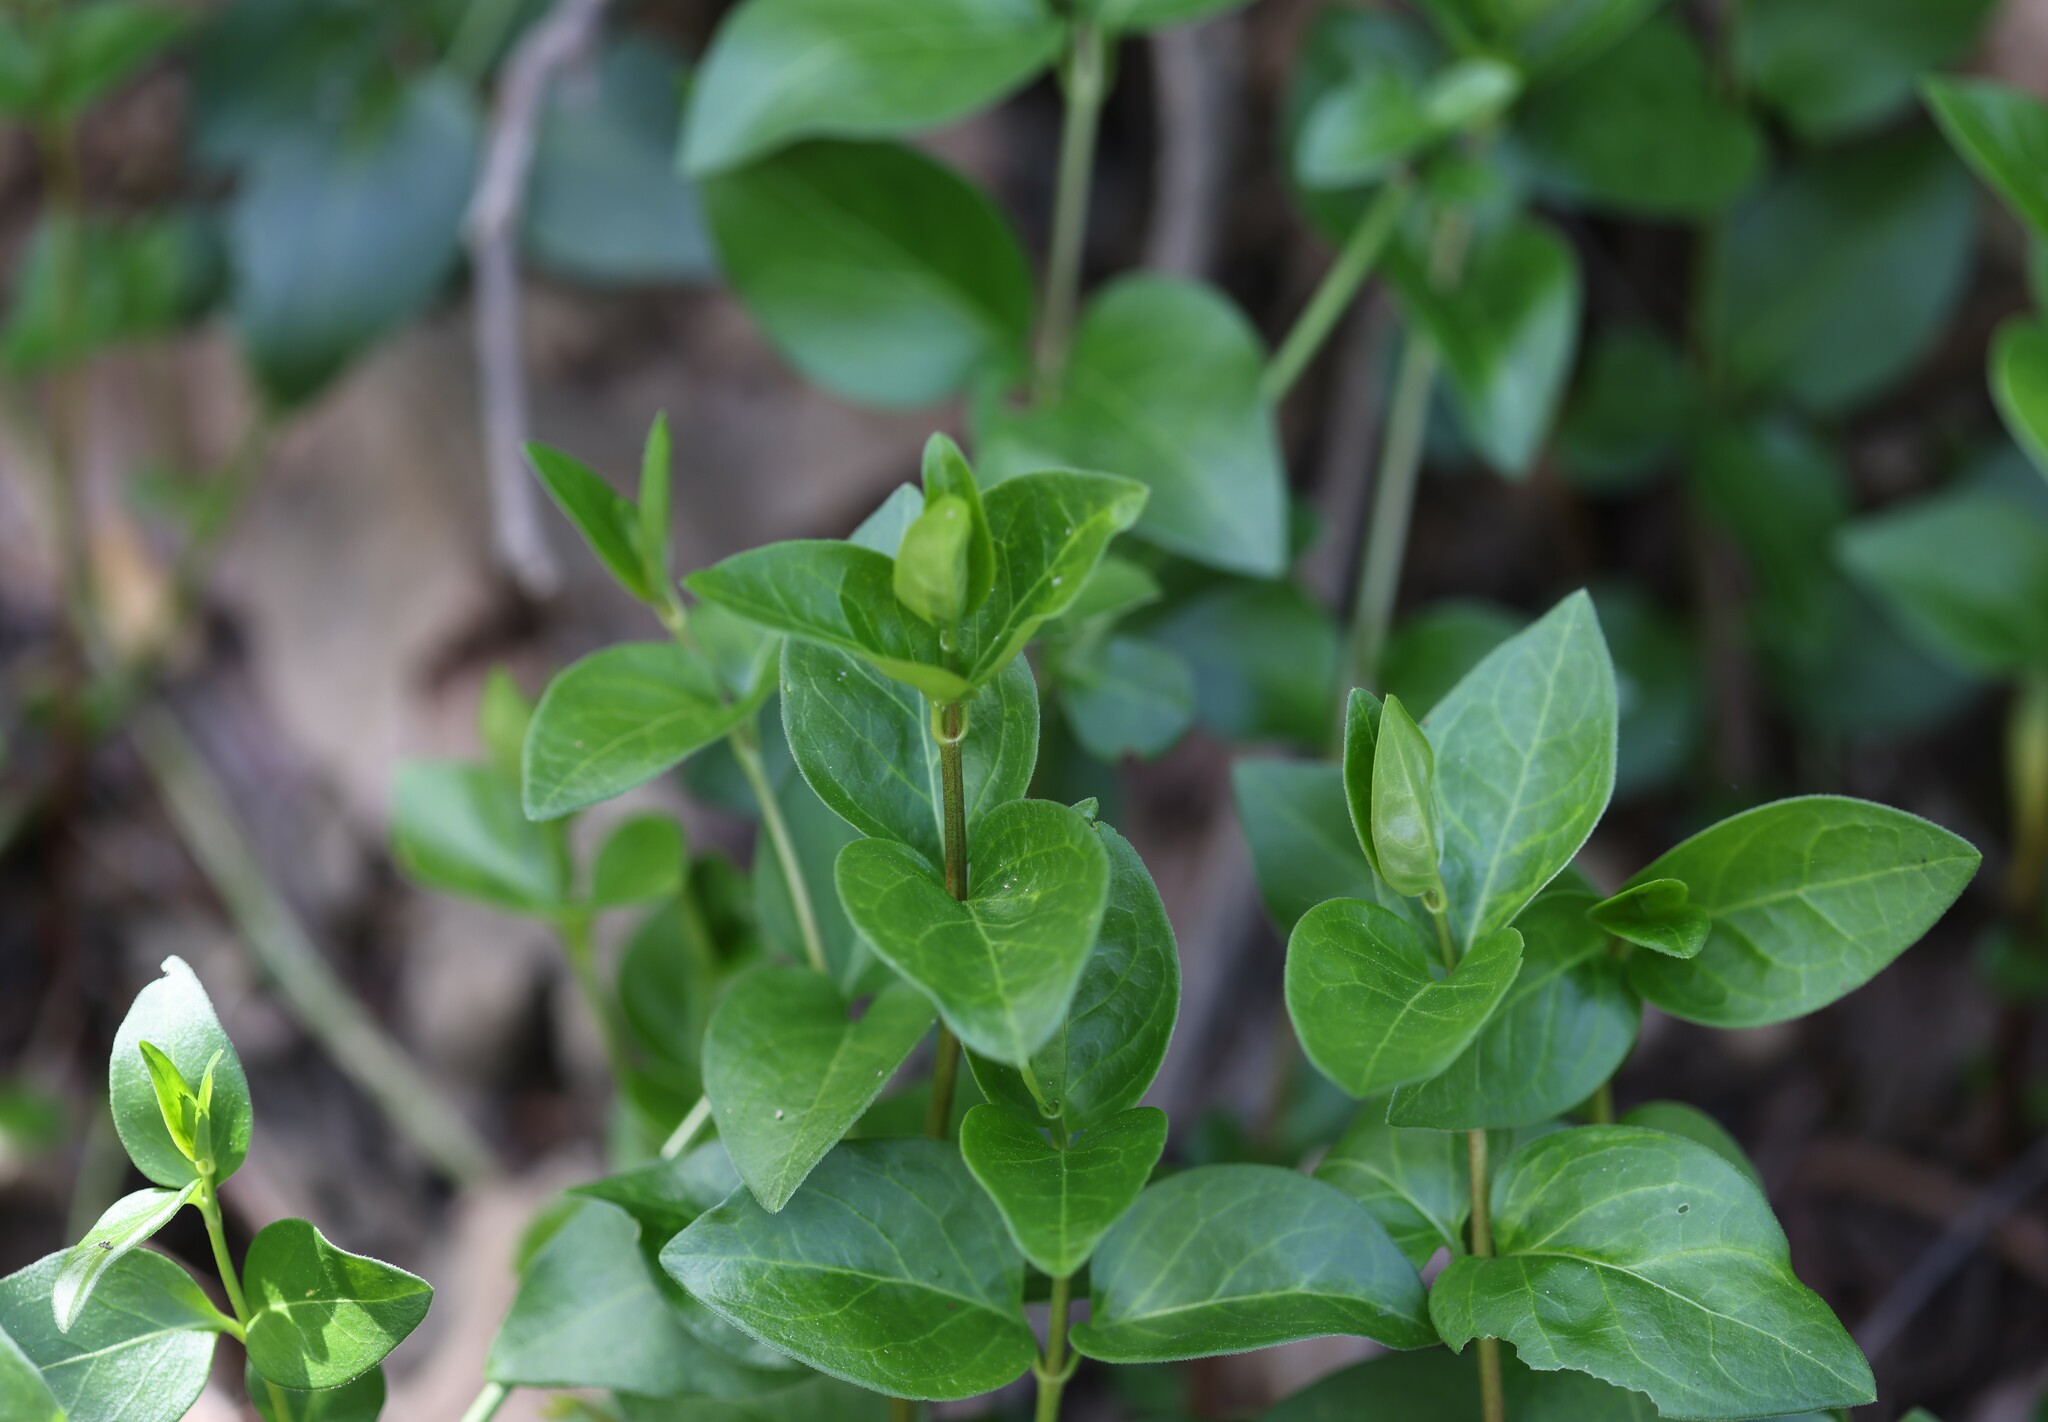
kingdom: Plantae
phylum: Tracheophyta
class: Magnoliopsida
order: Gentianales
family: Apocynaceae
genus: Vinca
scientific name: Vinca major
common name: Greater periwinkle
